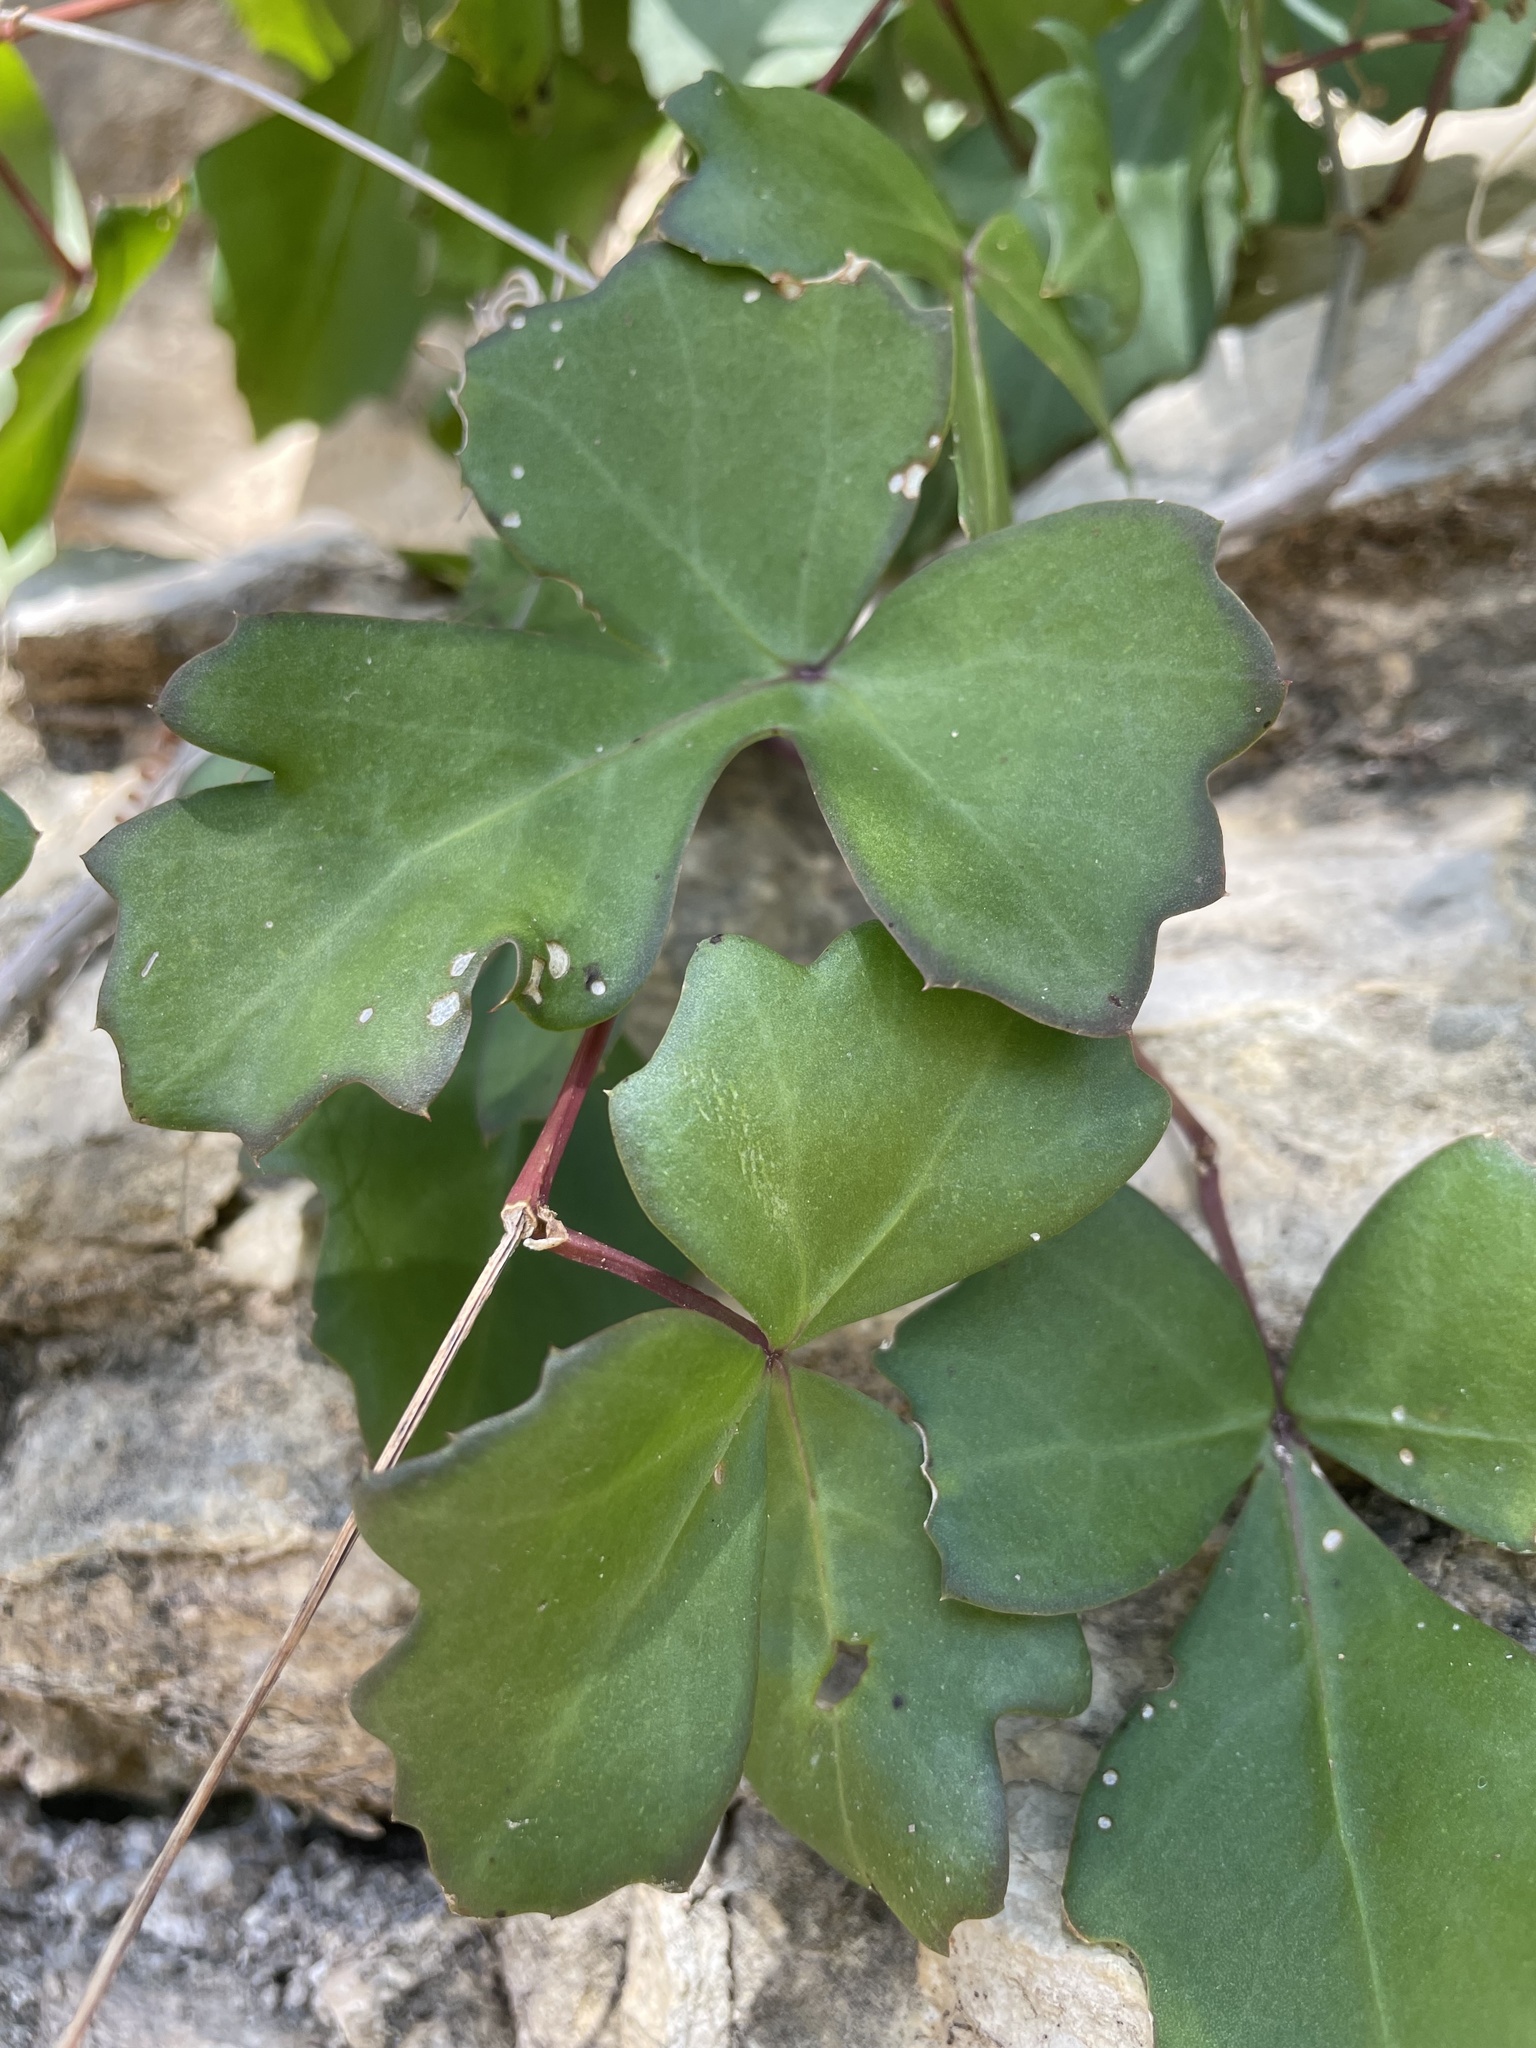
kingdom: Plantae
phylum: Tracheophyta
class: Magnoliopsida
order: Vitales
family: Vitaceae
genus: Cissus
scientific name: Cissus trifoliata
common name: Vine-sorrel
